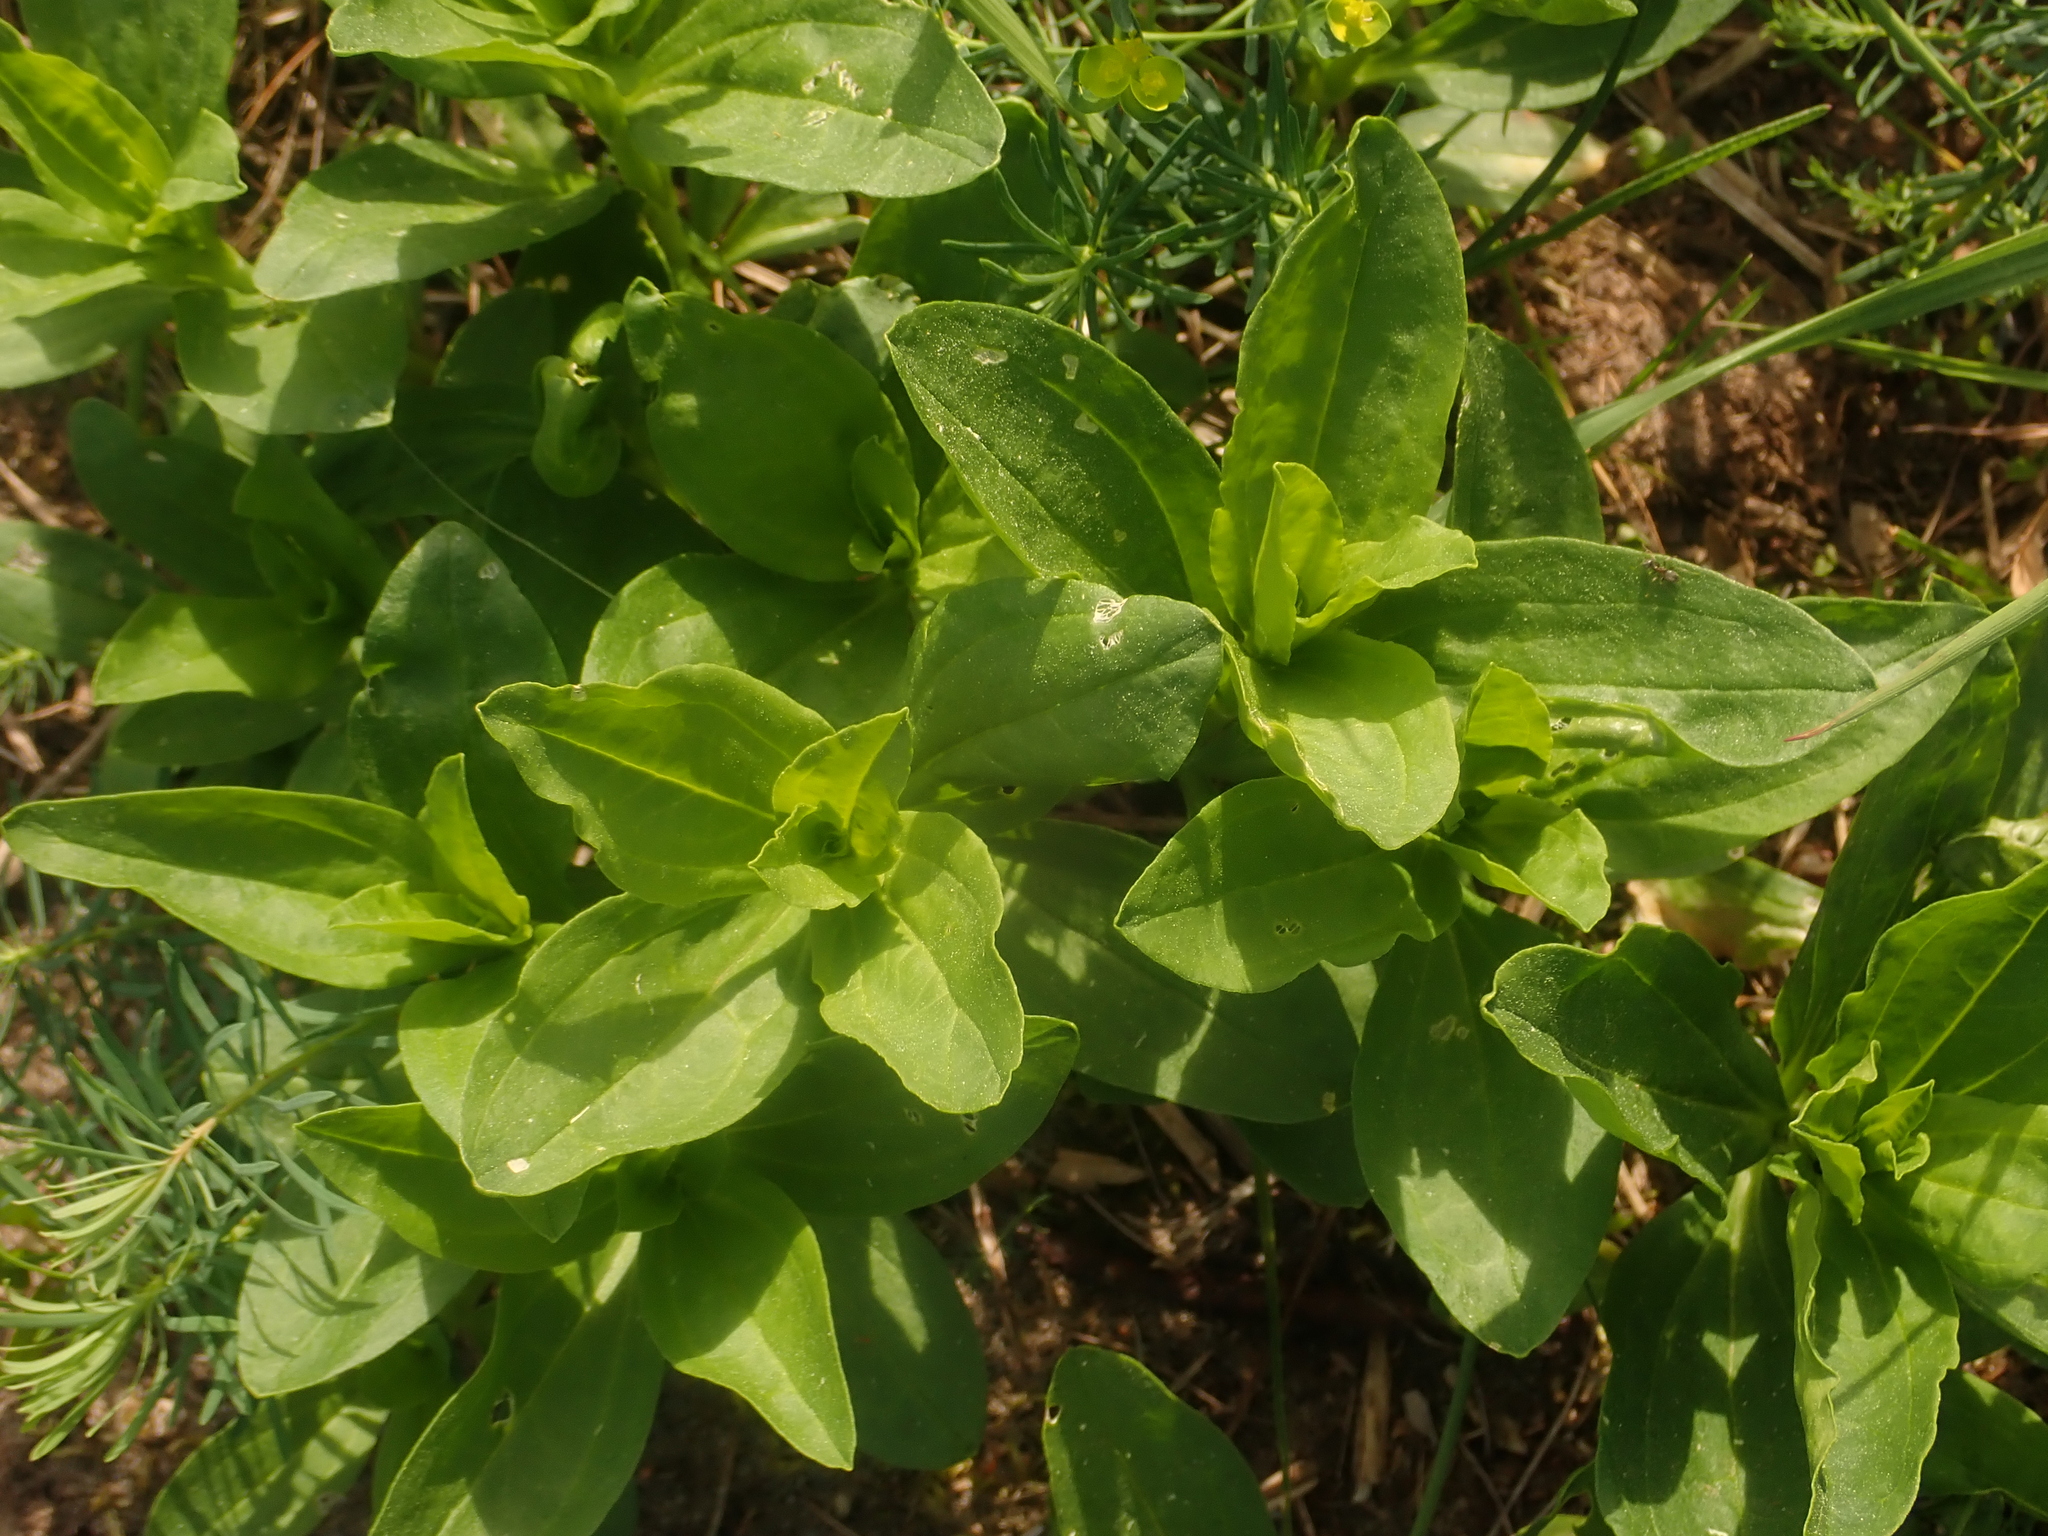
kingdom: Plantae
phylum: Tracheophyta
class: Magnoliopsida
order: Caryophyllales
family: Caryophyllaceae
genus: Saponaria
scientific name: Saponaria officinalis
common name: Soapwort
